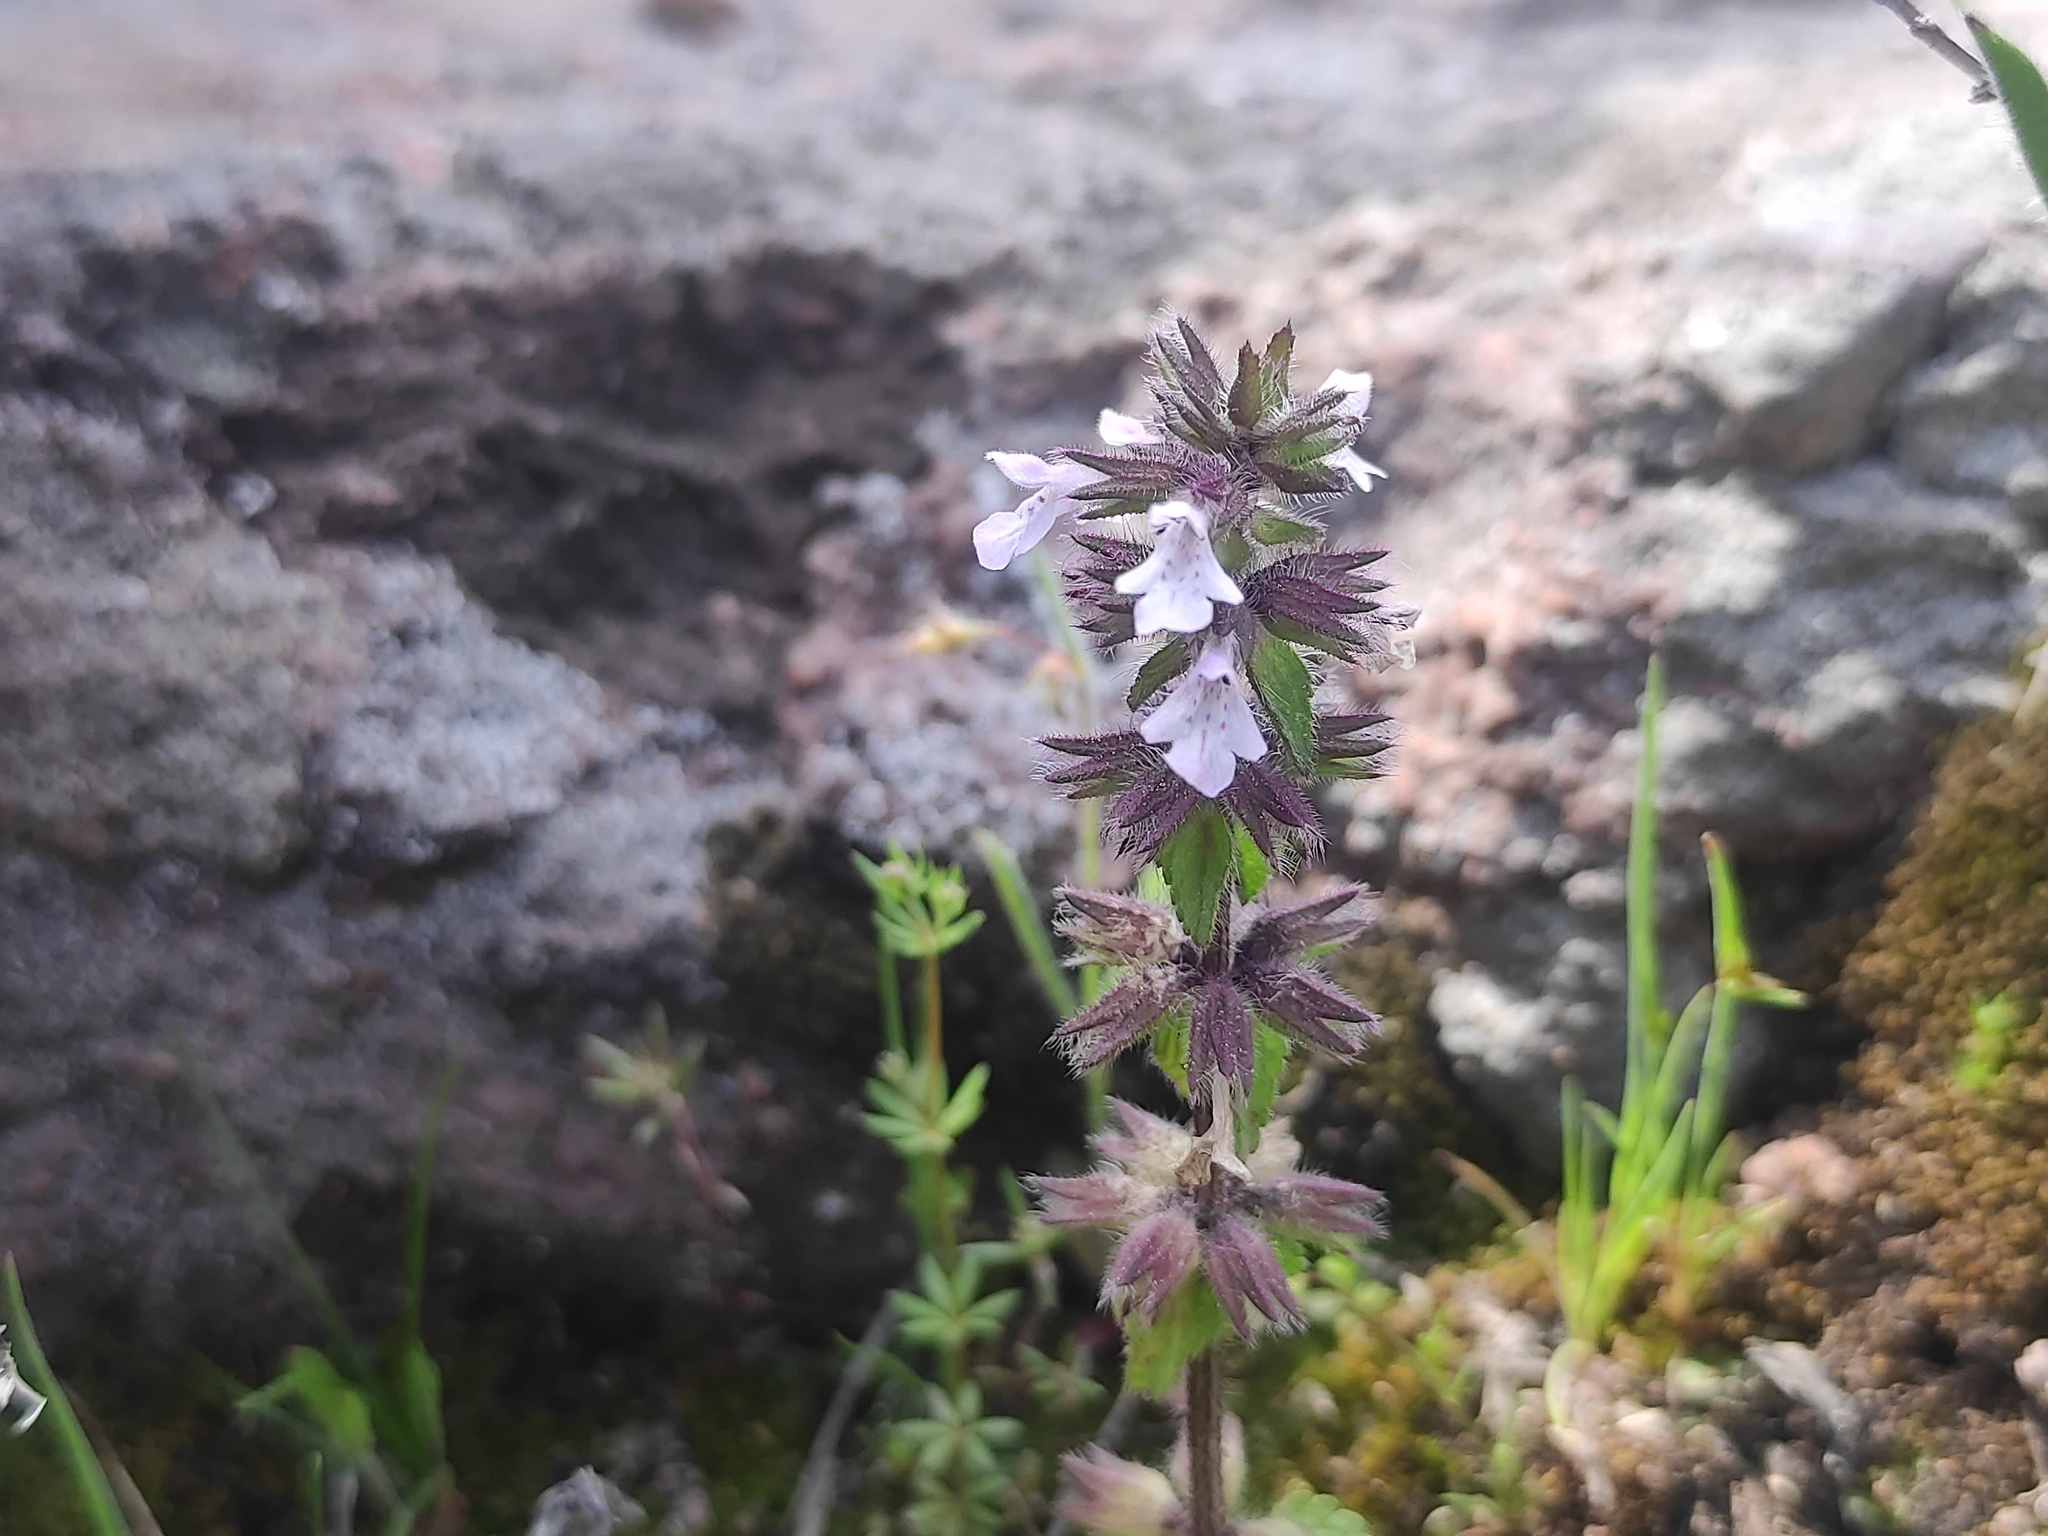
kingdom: Plantae
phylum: Tracheophyta
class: Magnoliopsida
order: Lamiales
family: Lamiaceae
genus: Stachys
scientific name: Stachys arvensis
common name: Field woundwort
